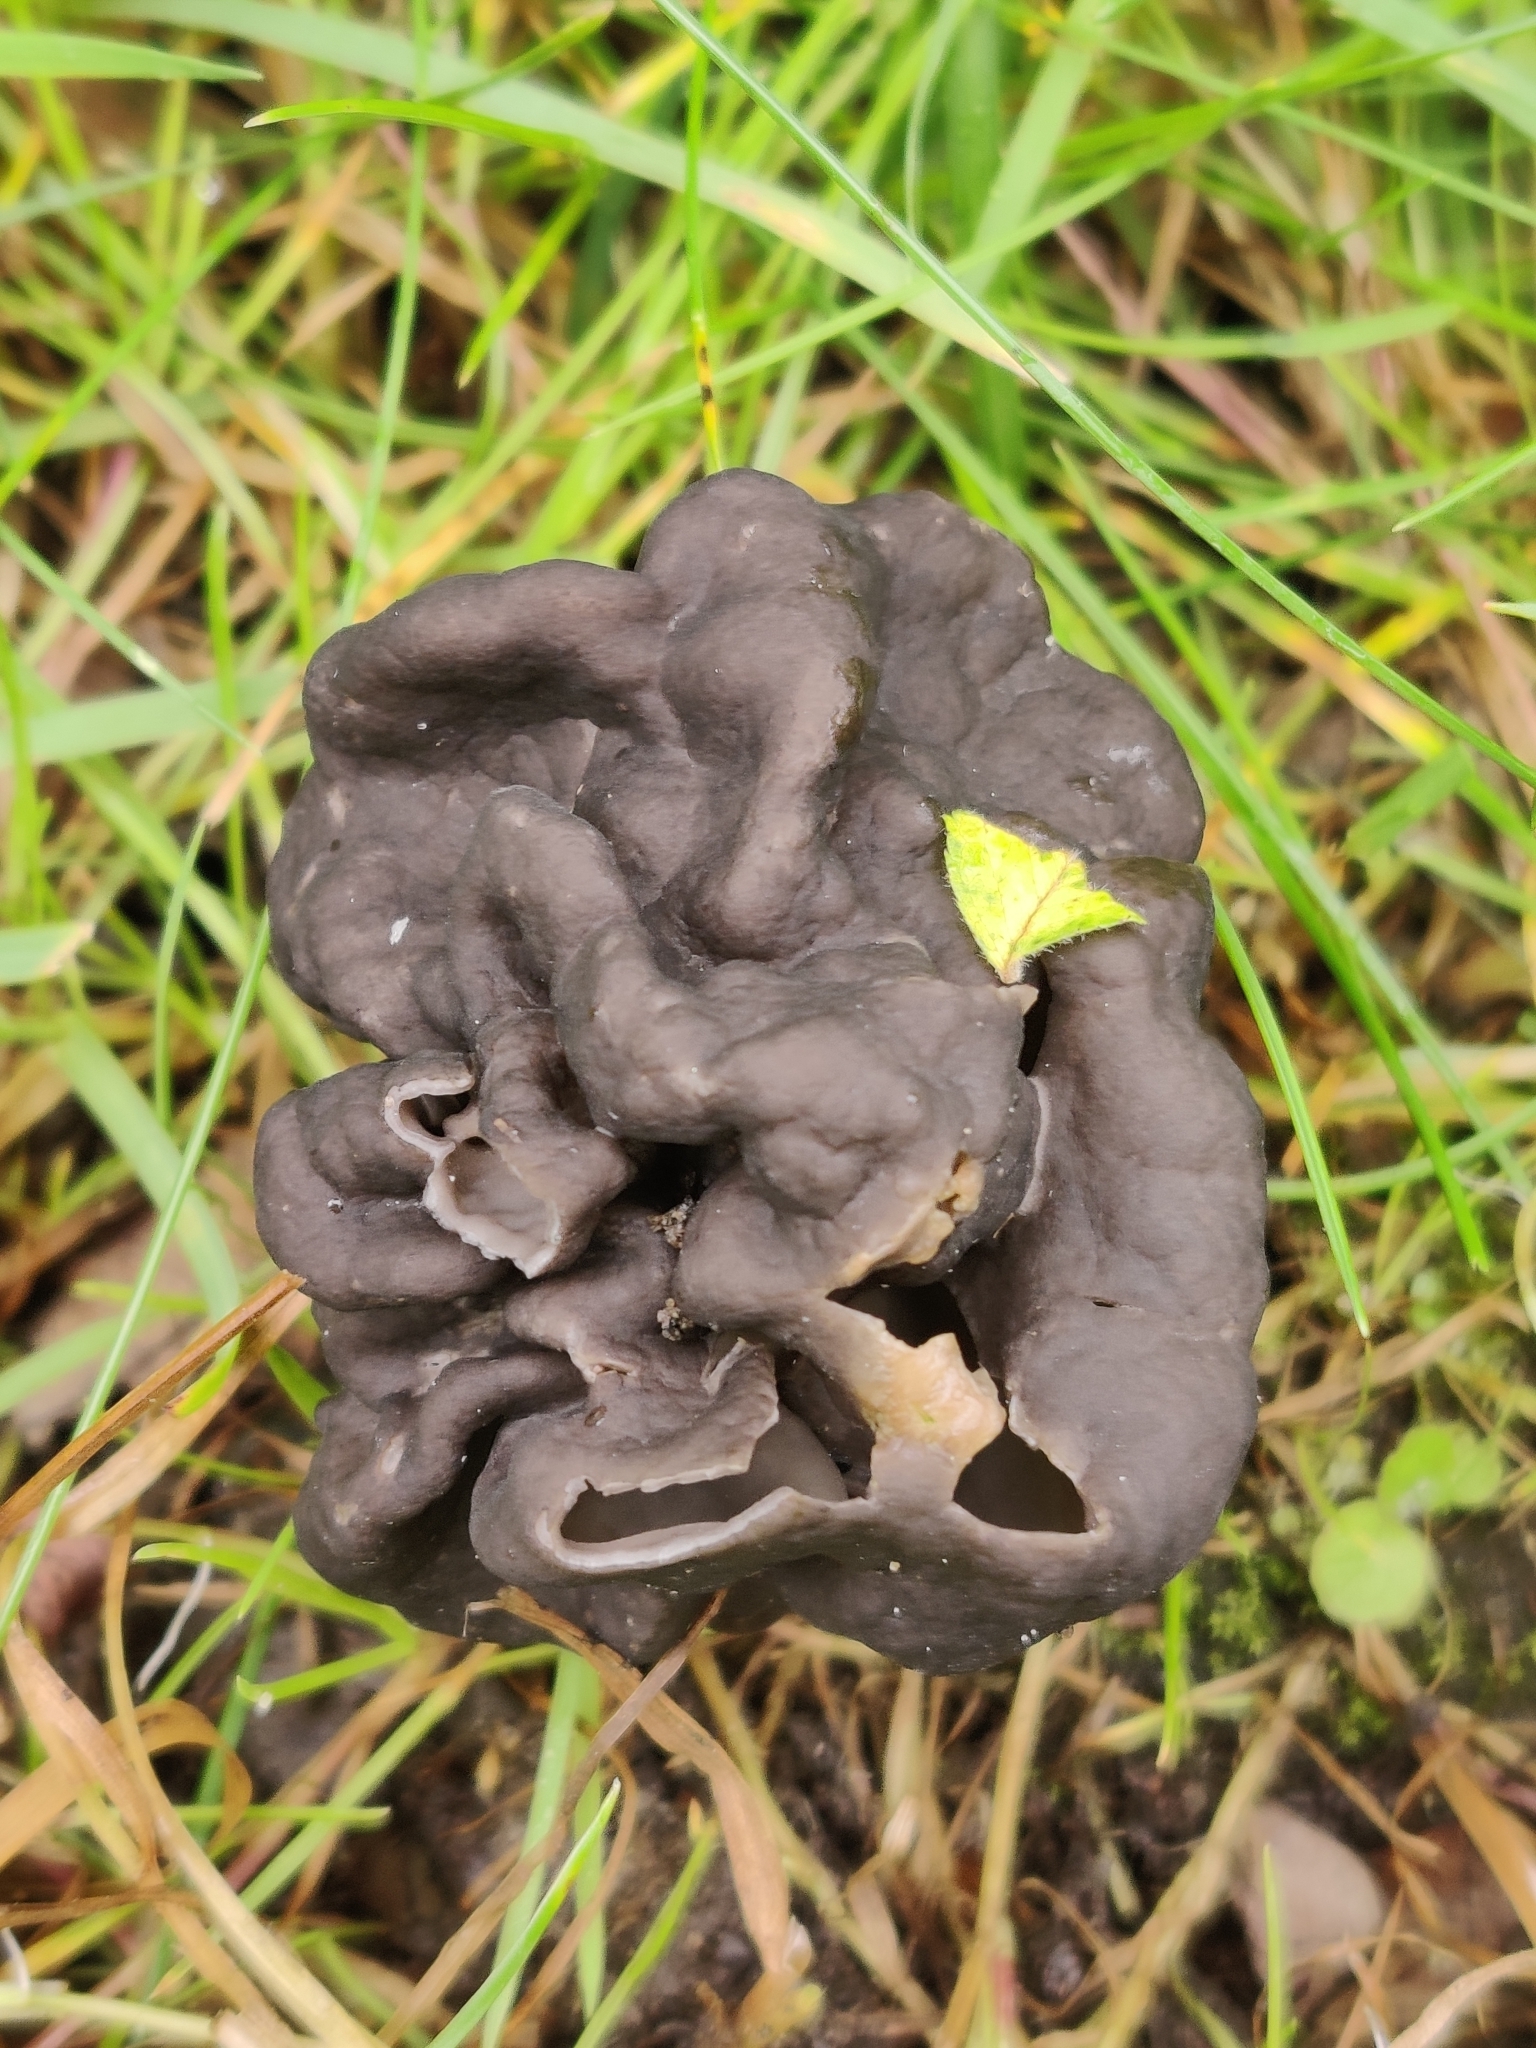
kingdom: Fungi
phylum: Ascomycota
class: Pezizomycetes
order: Pezizales
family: Helvellaceae
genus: Helvella
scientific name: Helvella lacunosa
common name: Elfin saddle
